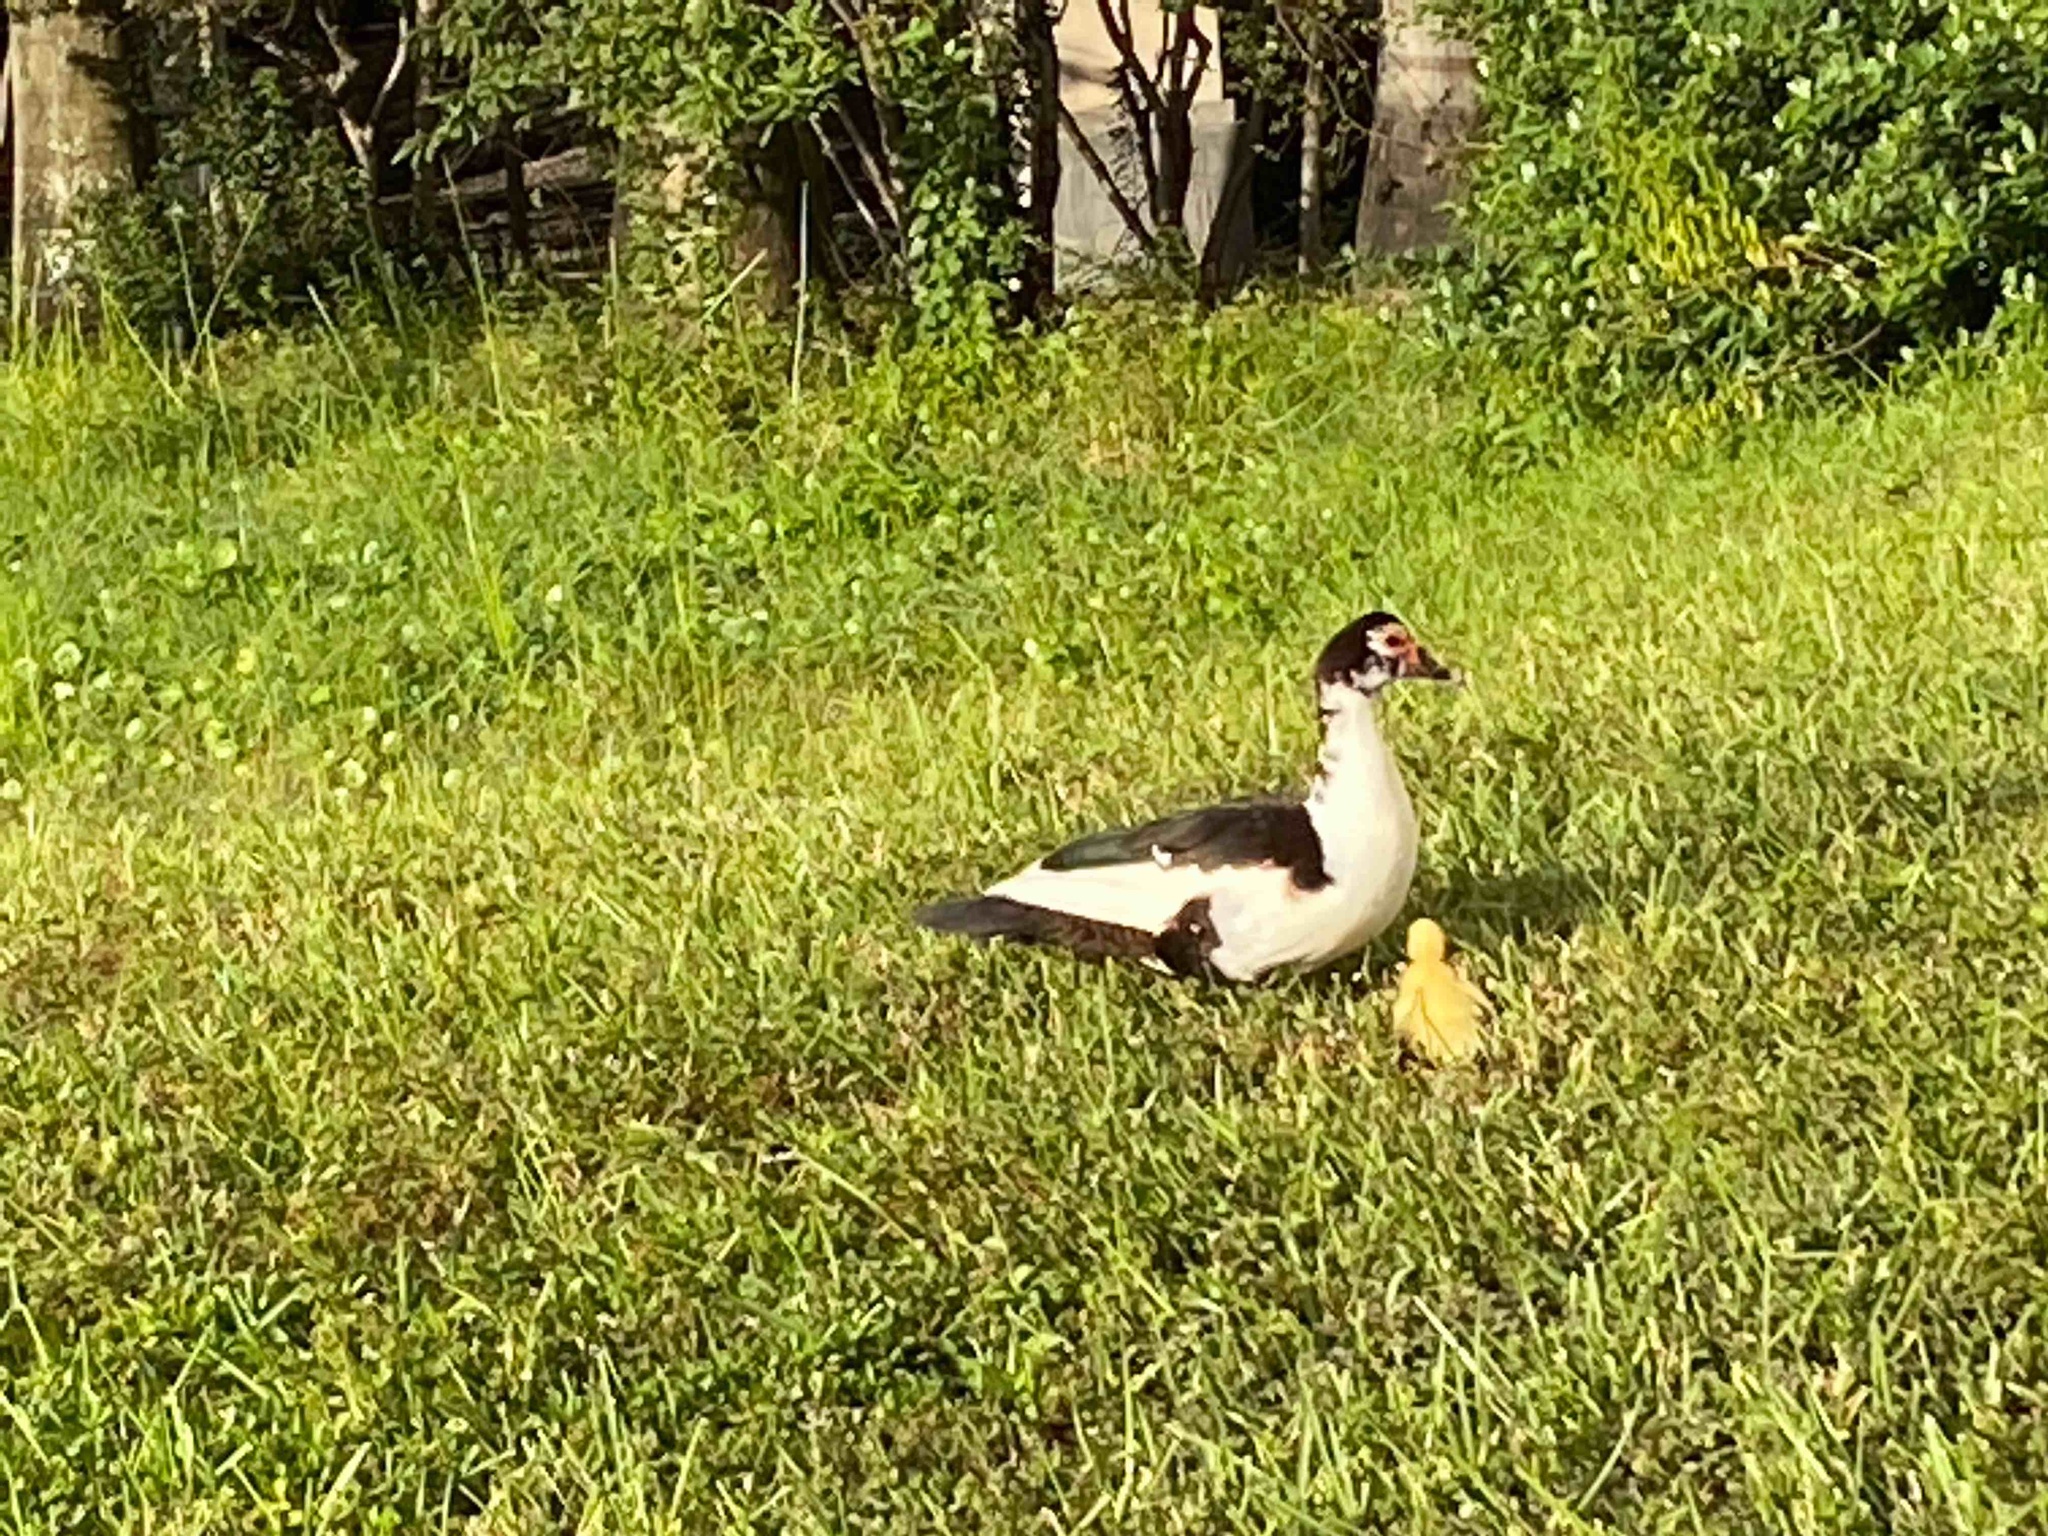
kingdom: Animalia
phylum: Chordata
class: Aves
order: Anseriformes
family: Anatidae
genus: Cairina
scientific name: Cairina moschata
